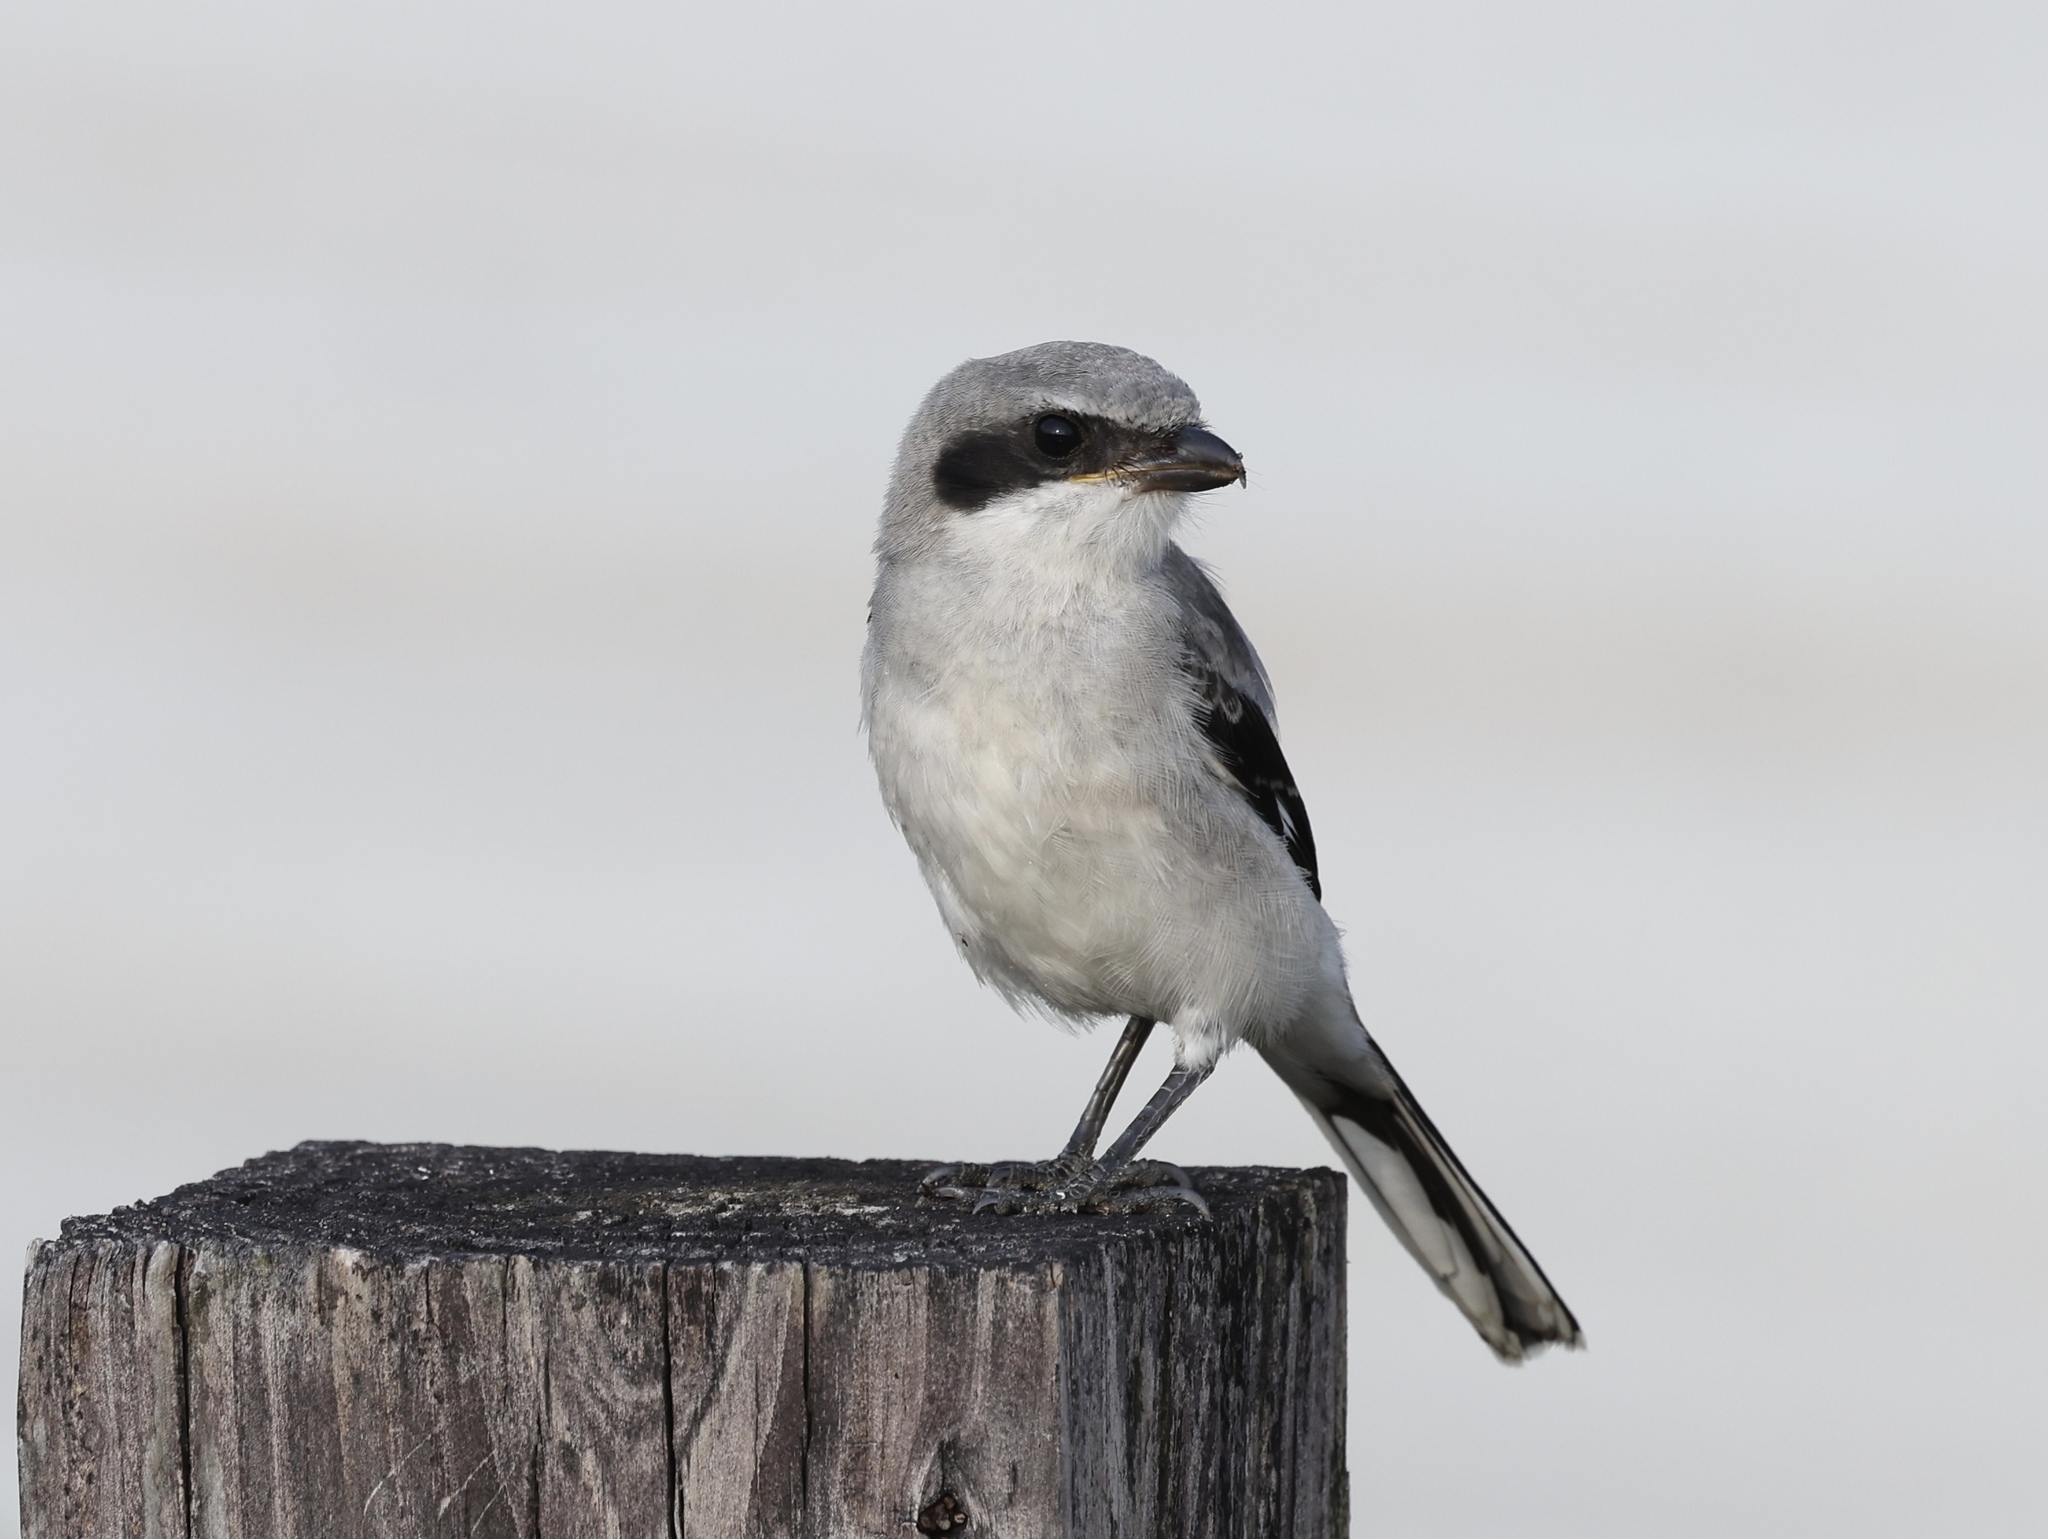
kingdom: Animalia
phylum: Chordata
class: Aves
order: Passeriformes
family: Laniidae
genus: Lanius
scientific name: Lanius ludovicianus
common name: Loggerhead shrike
